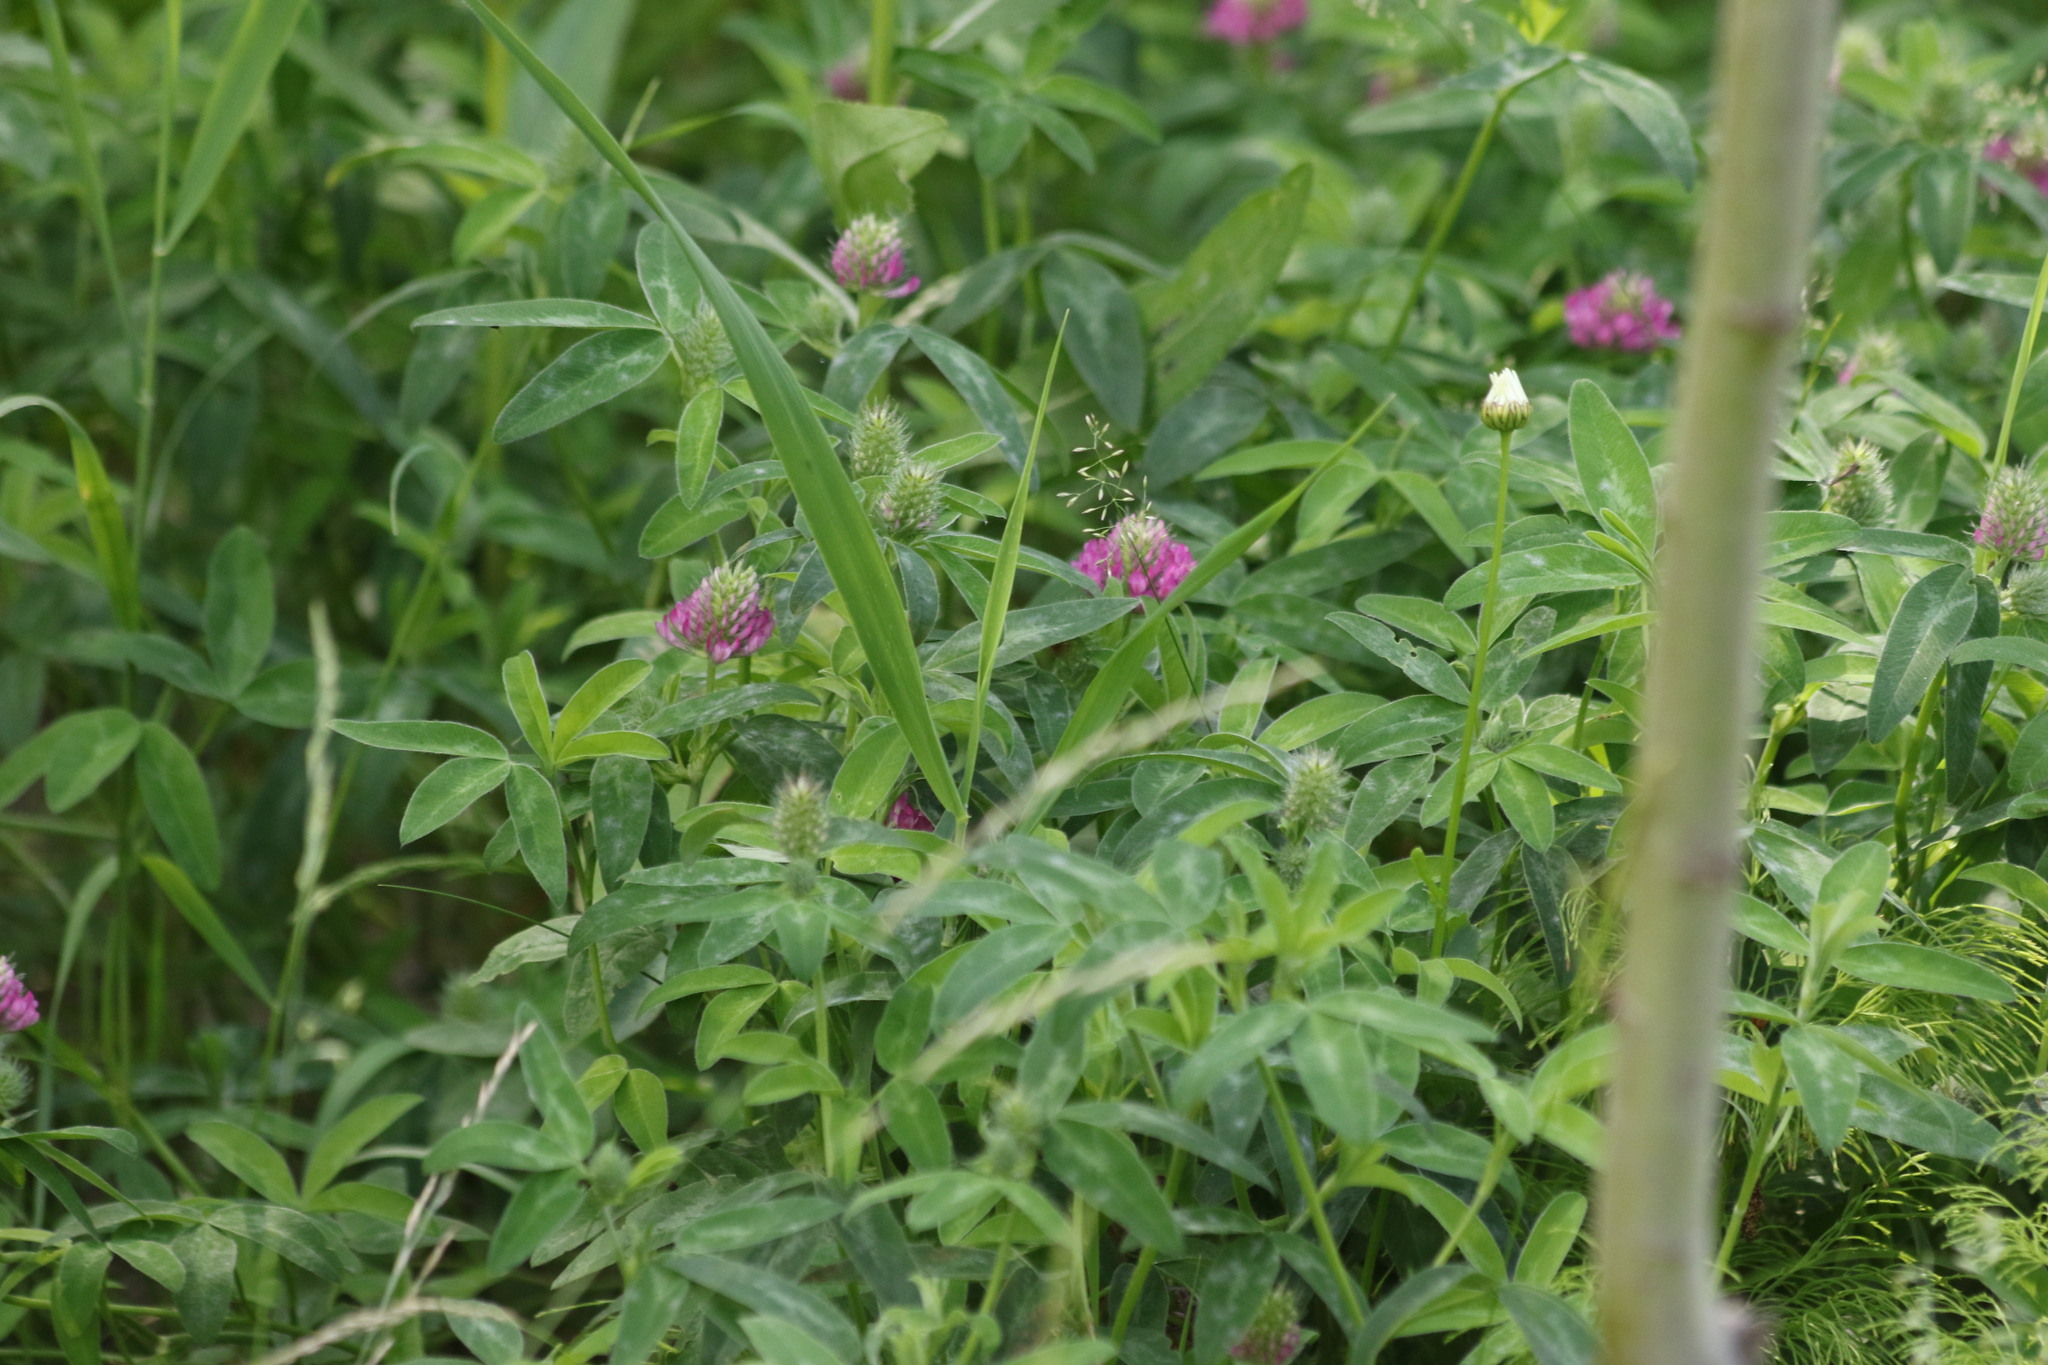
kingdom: Plantae
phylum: Tracheophyta
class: Magnoliopsida
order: Fabales
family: Fabaceae
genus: Trifolium
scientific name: Trifolium medium
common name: Zigzag clover
